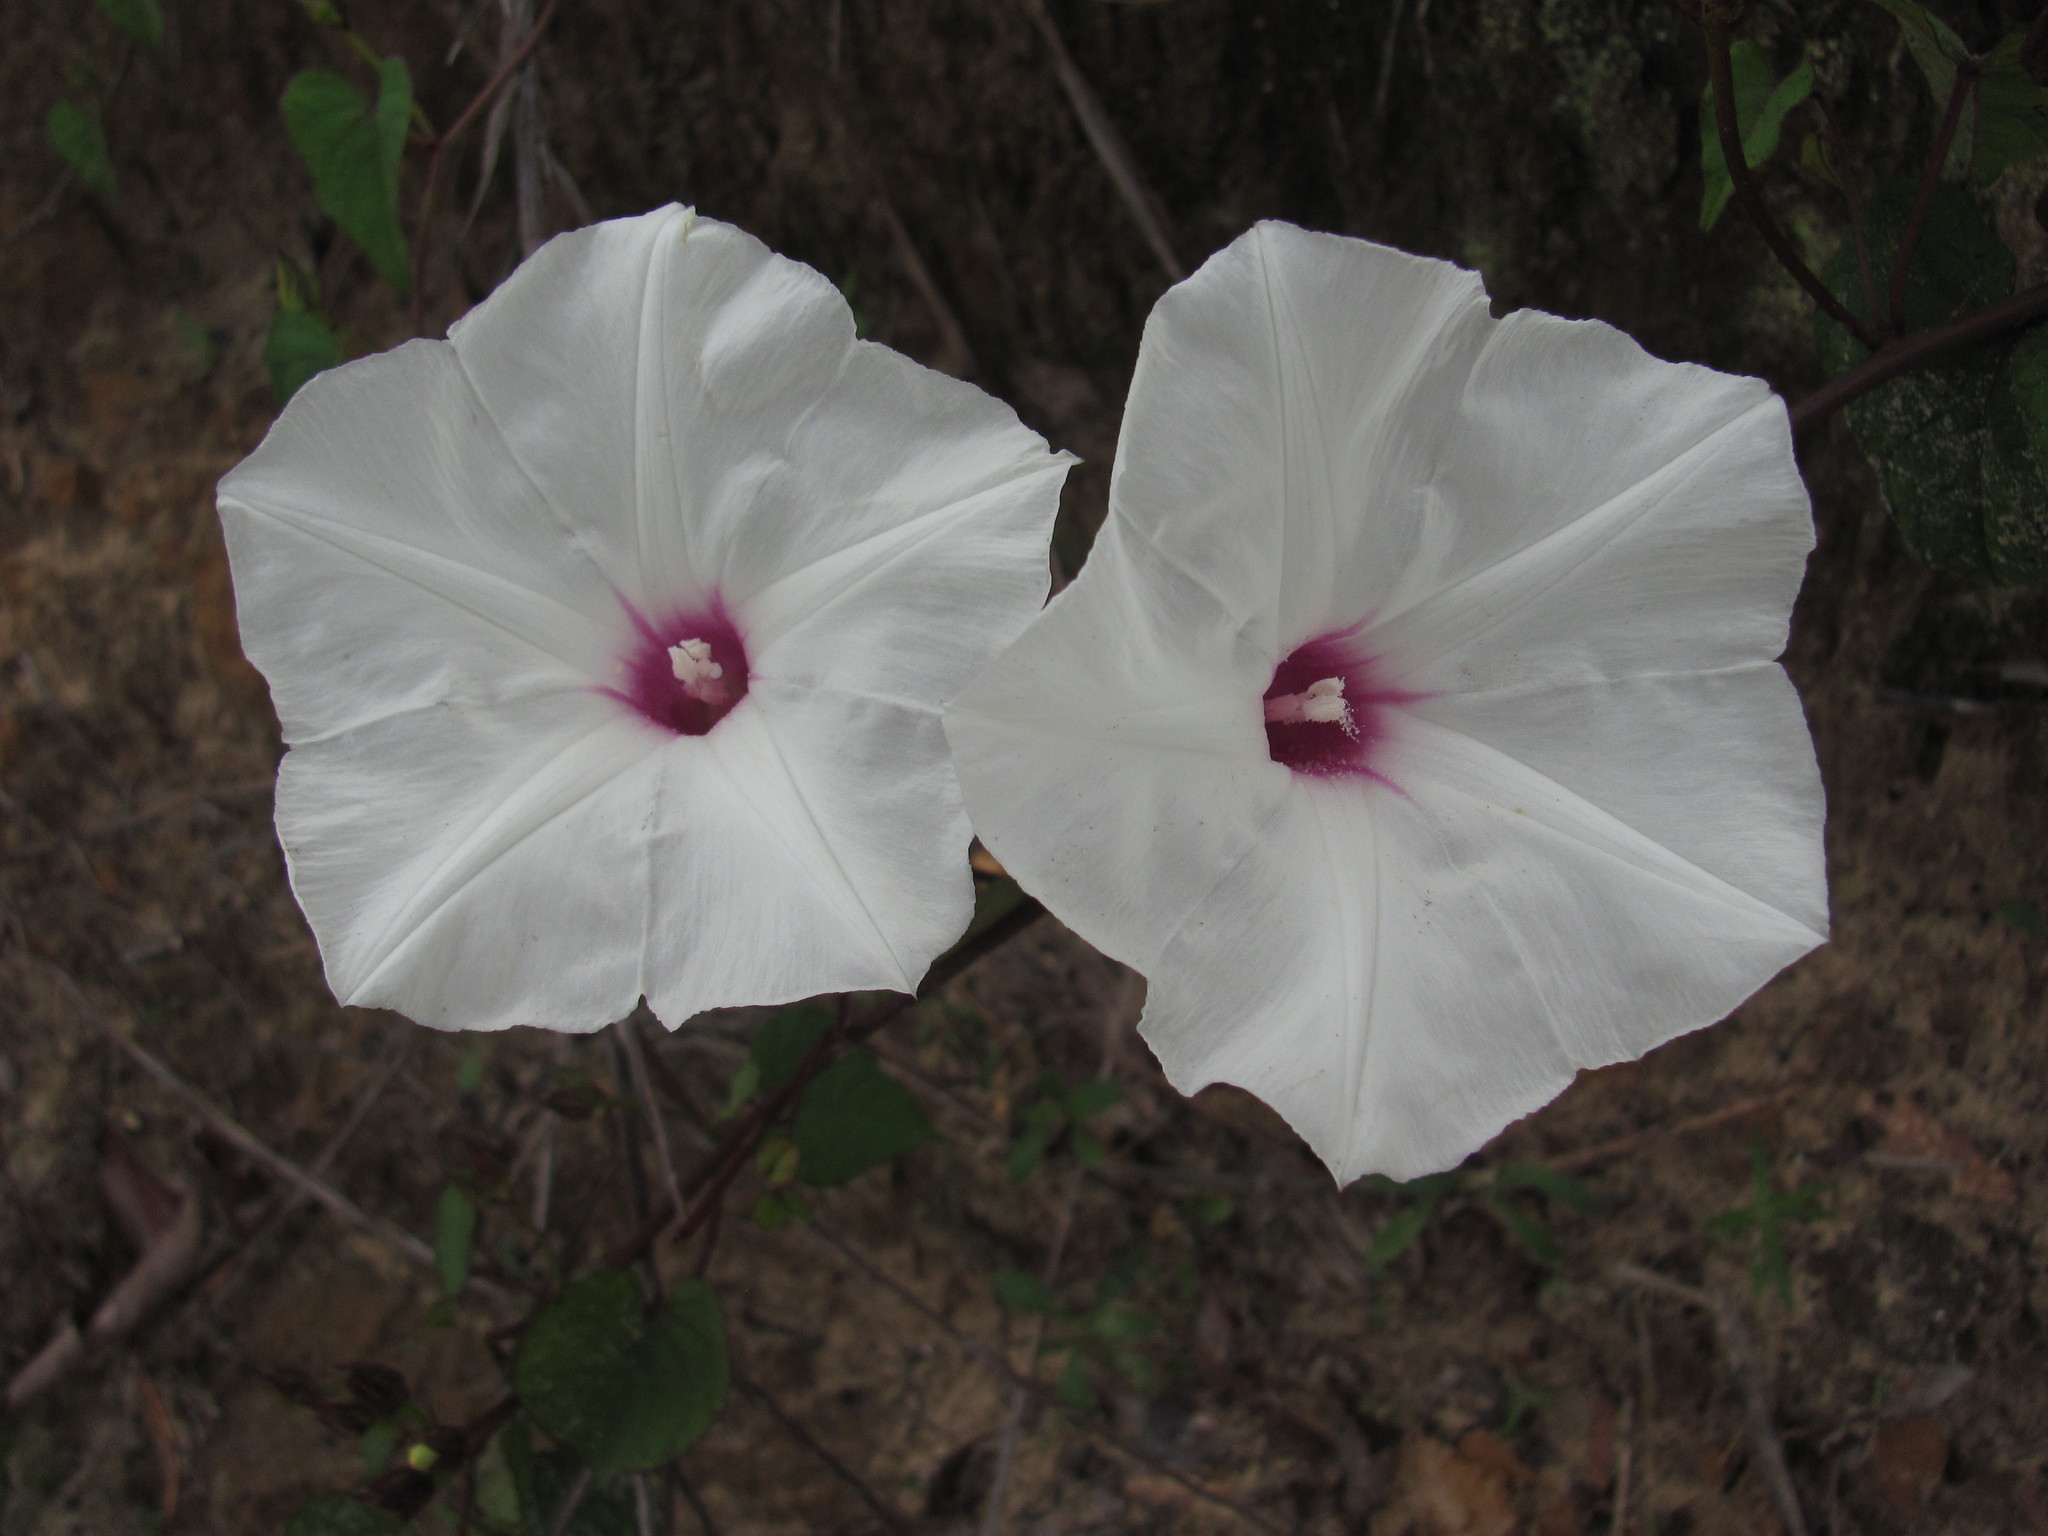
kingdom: Plantae
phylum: Tracheophyta
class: Magnoliopsida
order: Solanales
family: Convolvulaceae
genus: Ipomoea
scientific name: Ipomoea pandurata
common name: Man-of-the-earth
